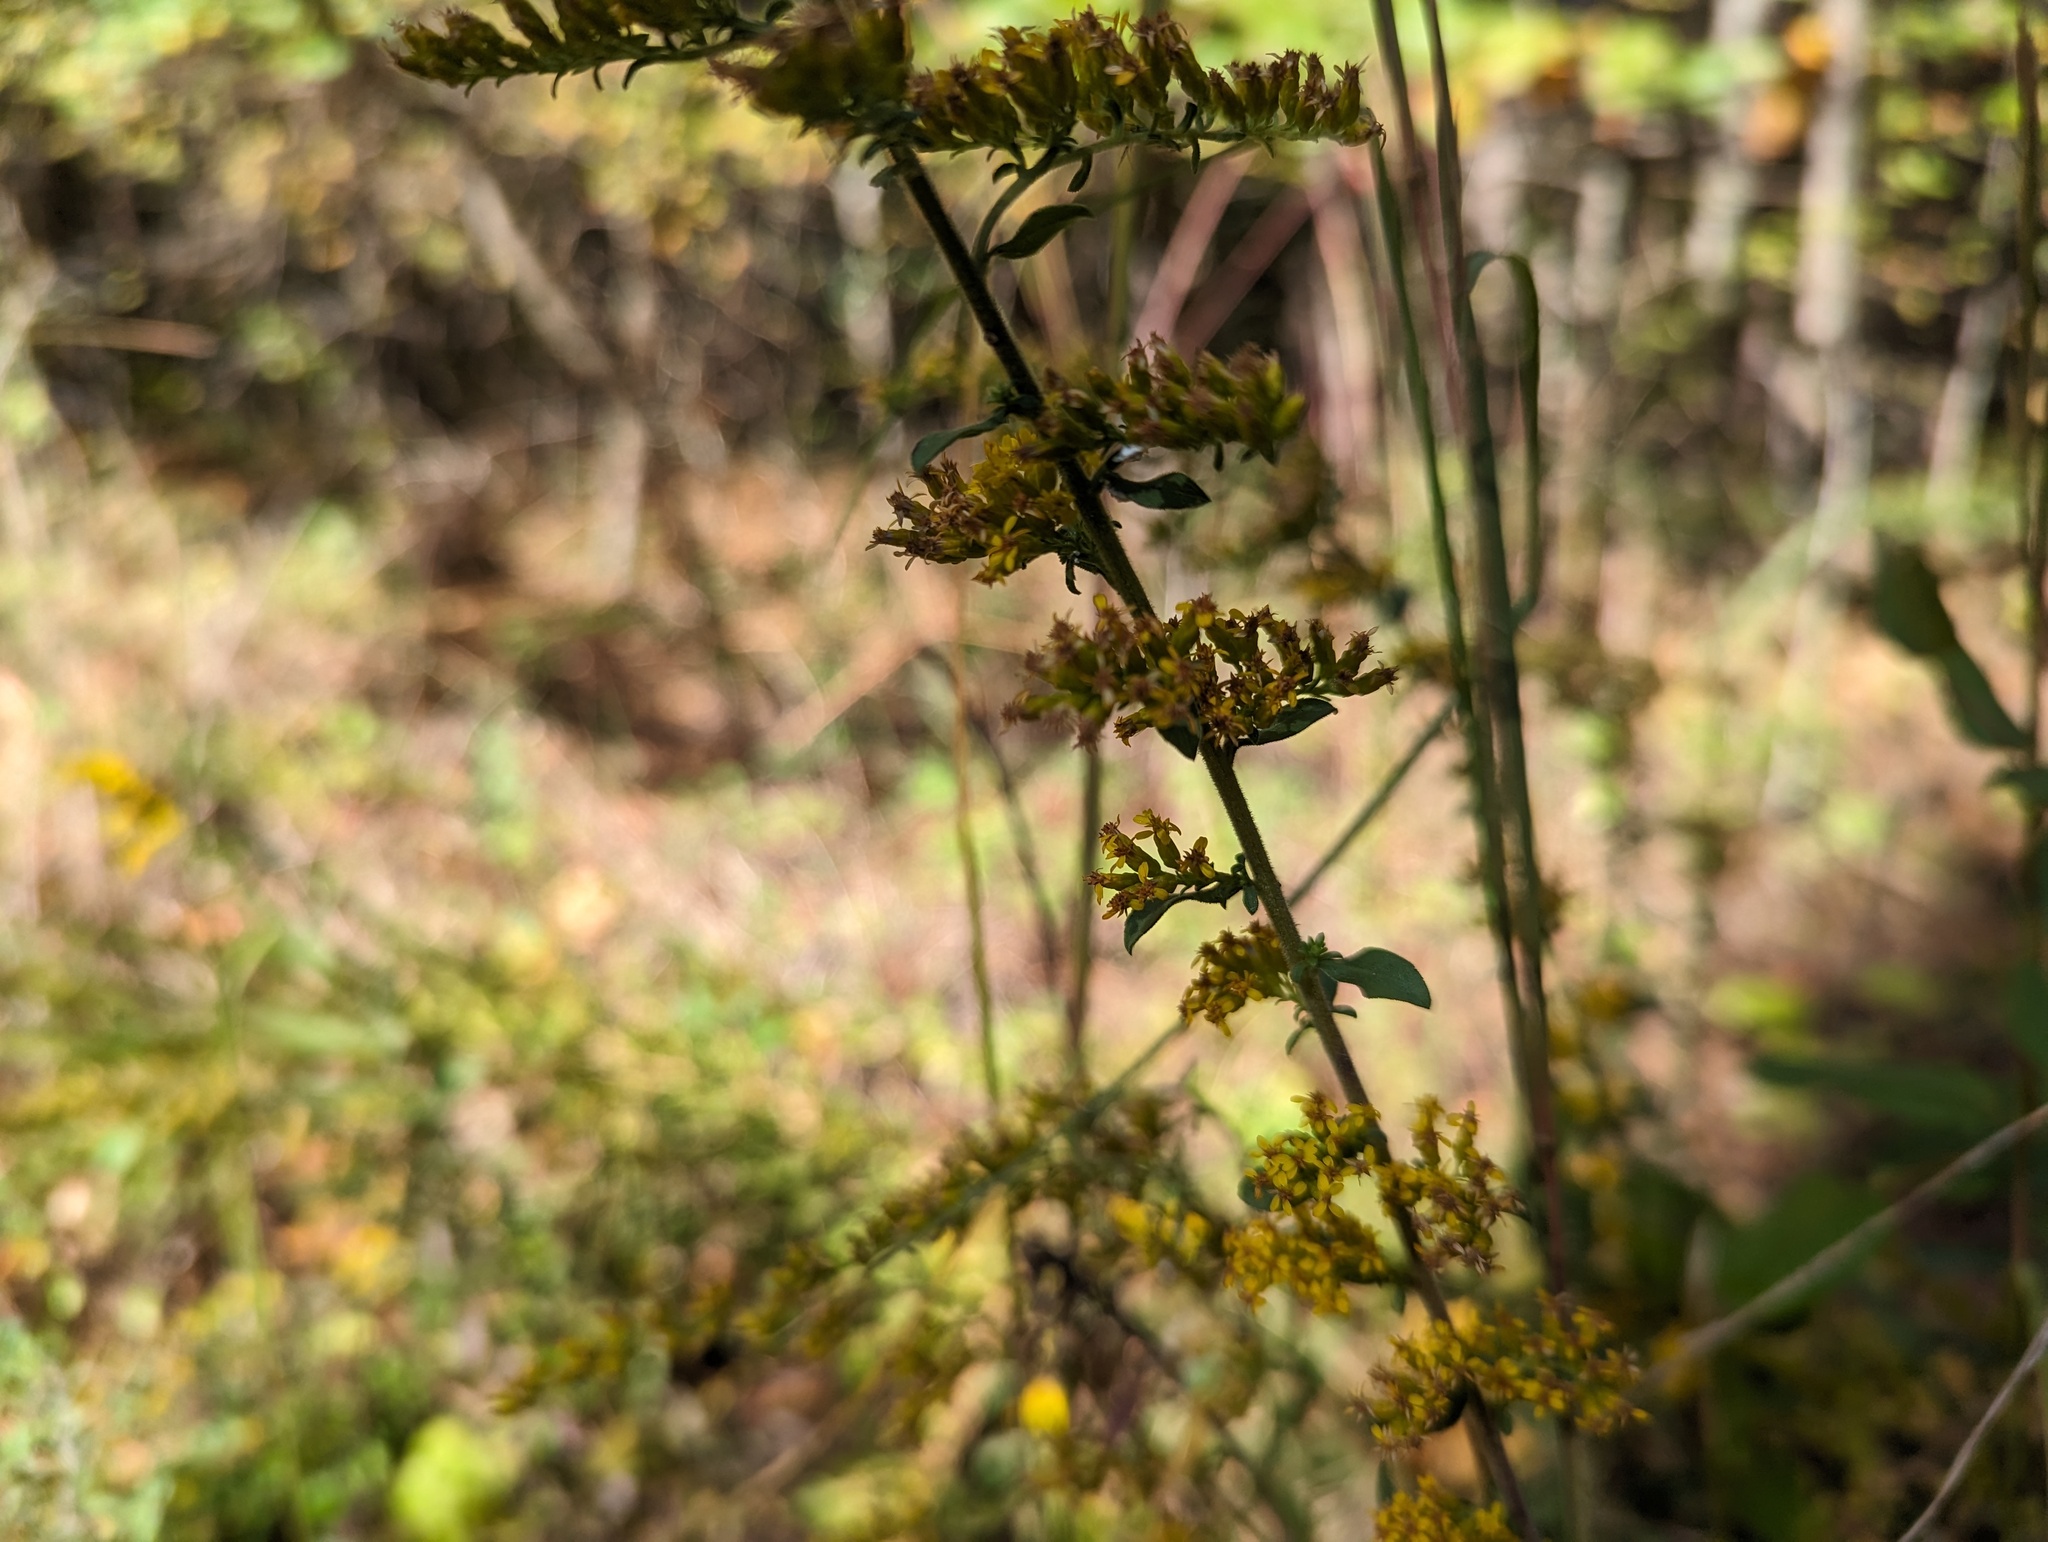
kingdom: Plantae
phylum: Tracheophyta
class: Magnoliopsida
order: Asterales
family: Asteraceae
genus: Solidago
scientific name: Solidago nemoralis
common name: Grey goldenrod
